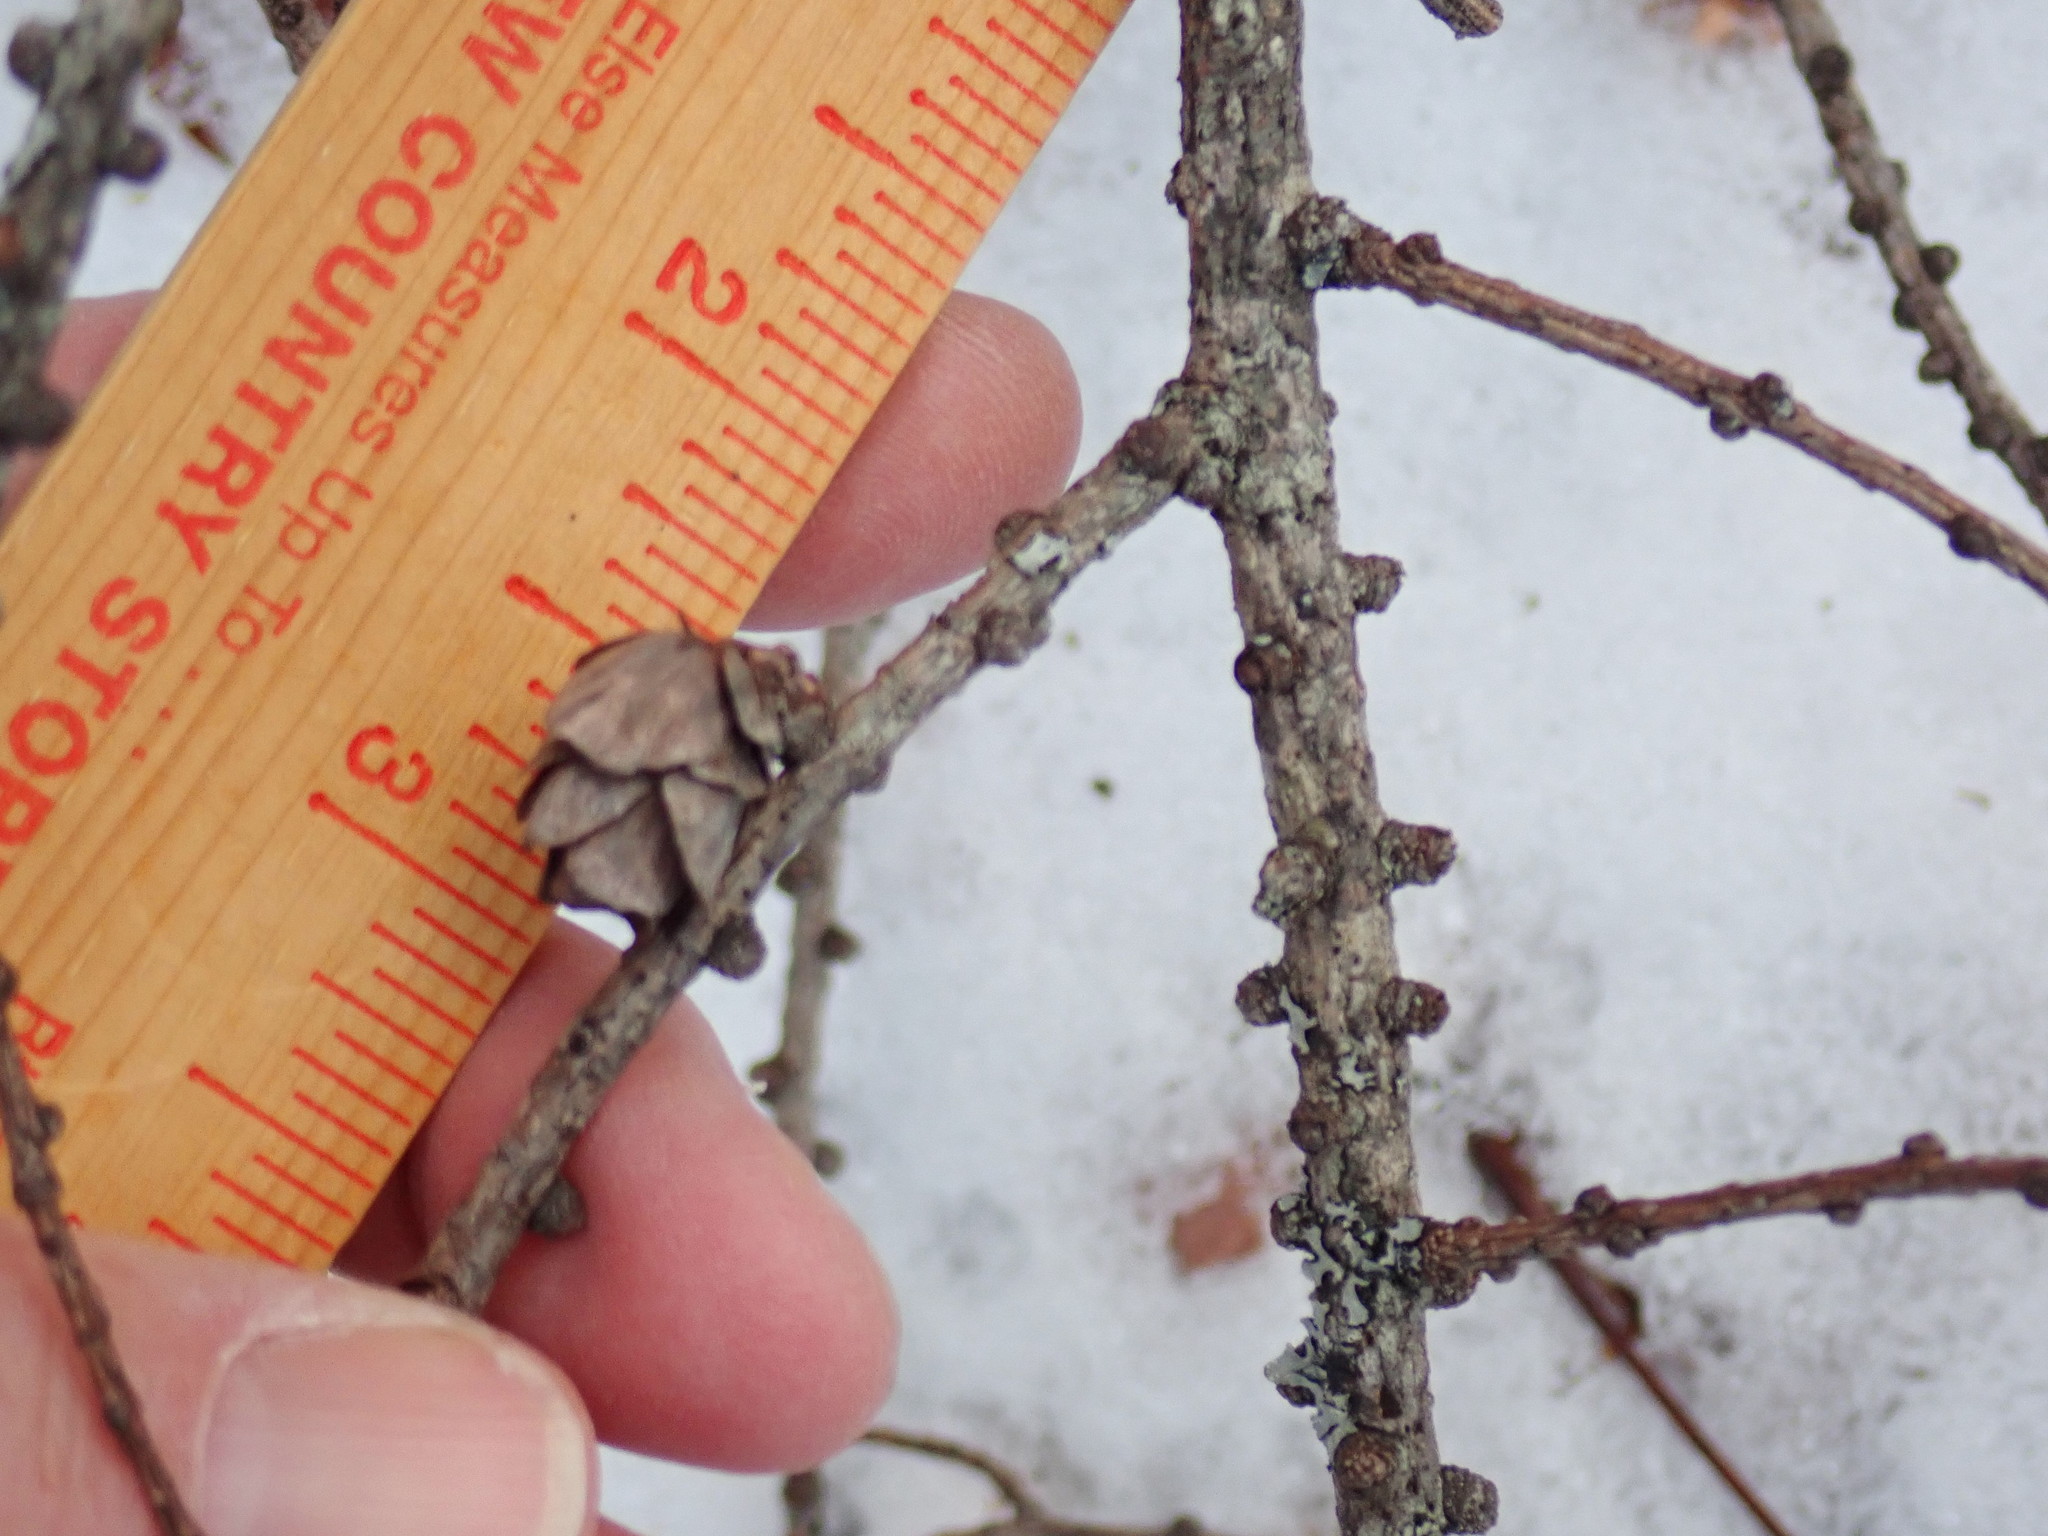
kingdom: Plantae
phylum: Tracheophyta
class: Pinopsida
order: Pinales
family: Pinaceae
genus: Larix
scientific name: Larix laricina
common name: American larch
